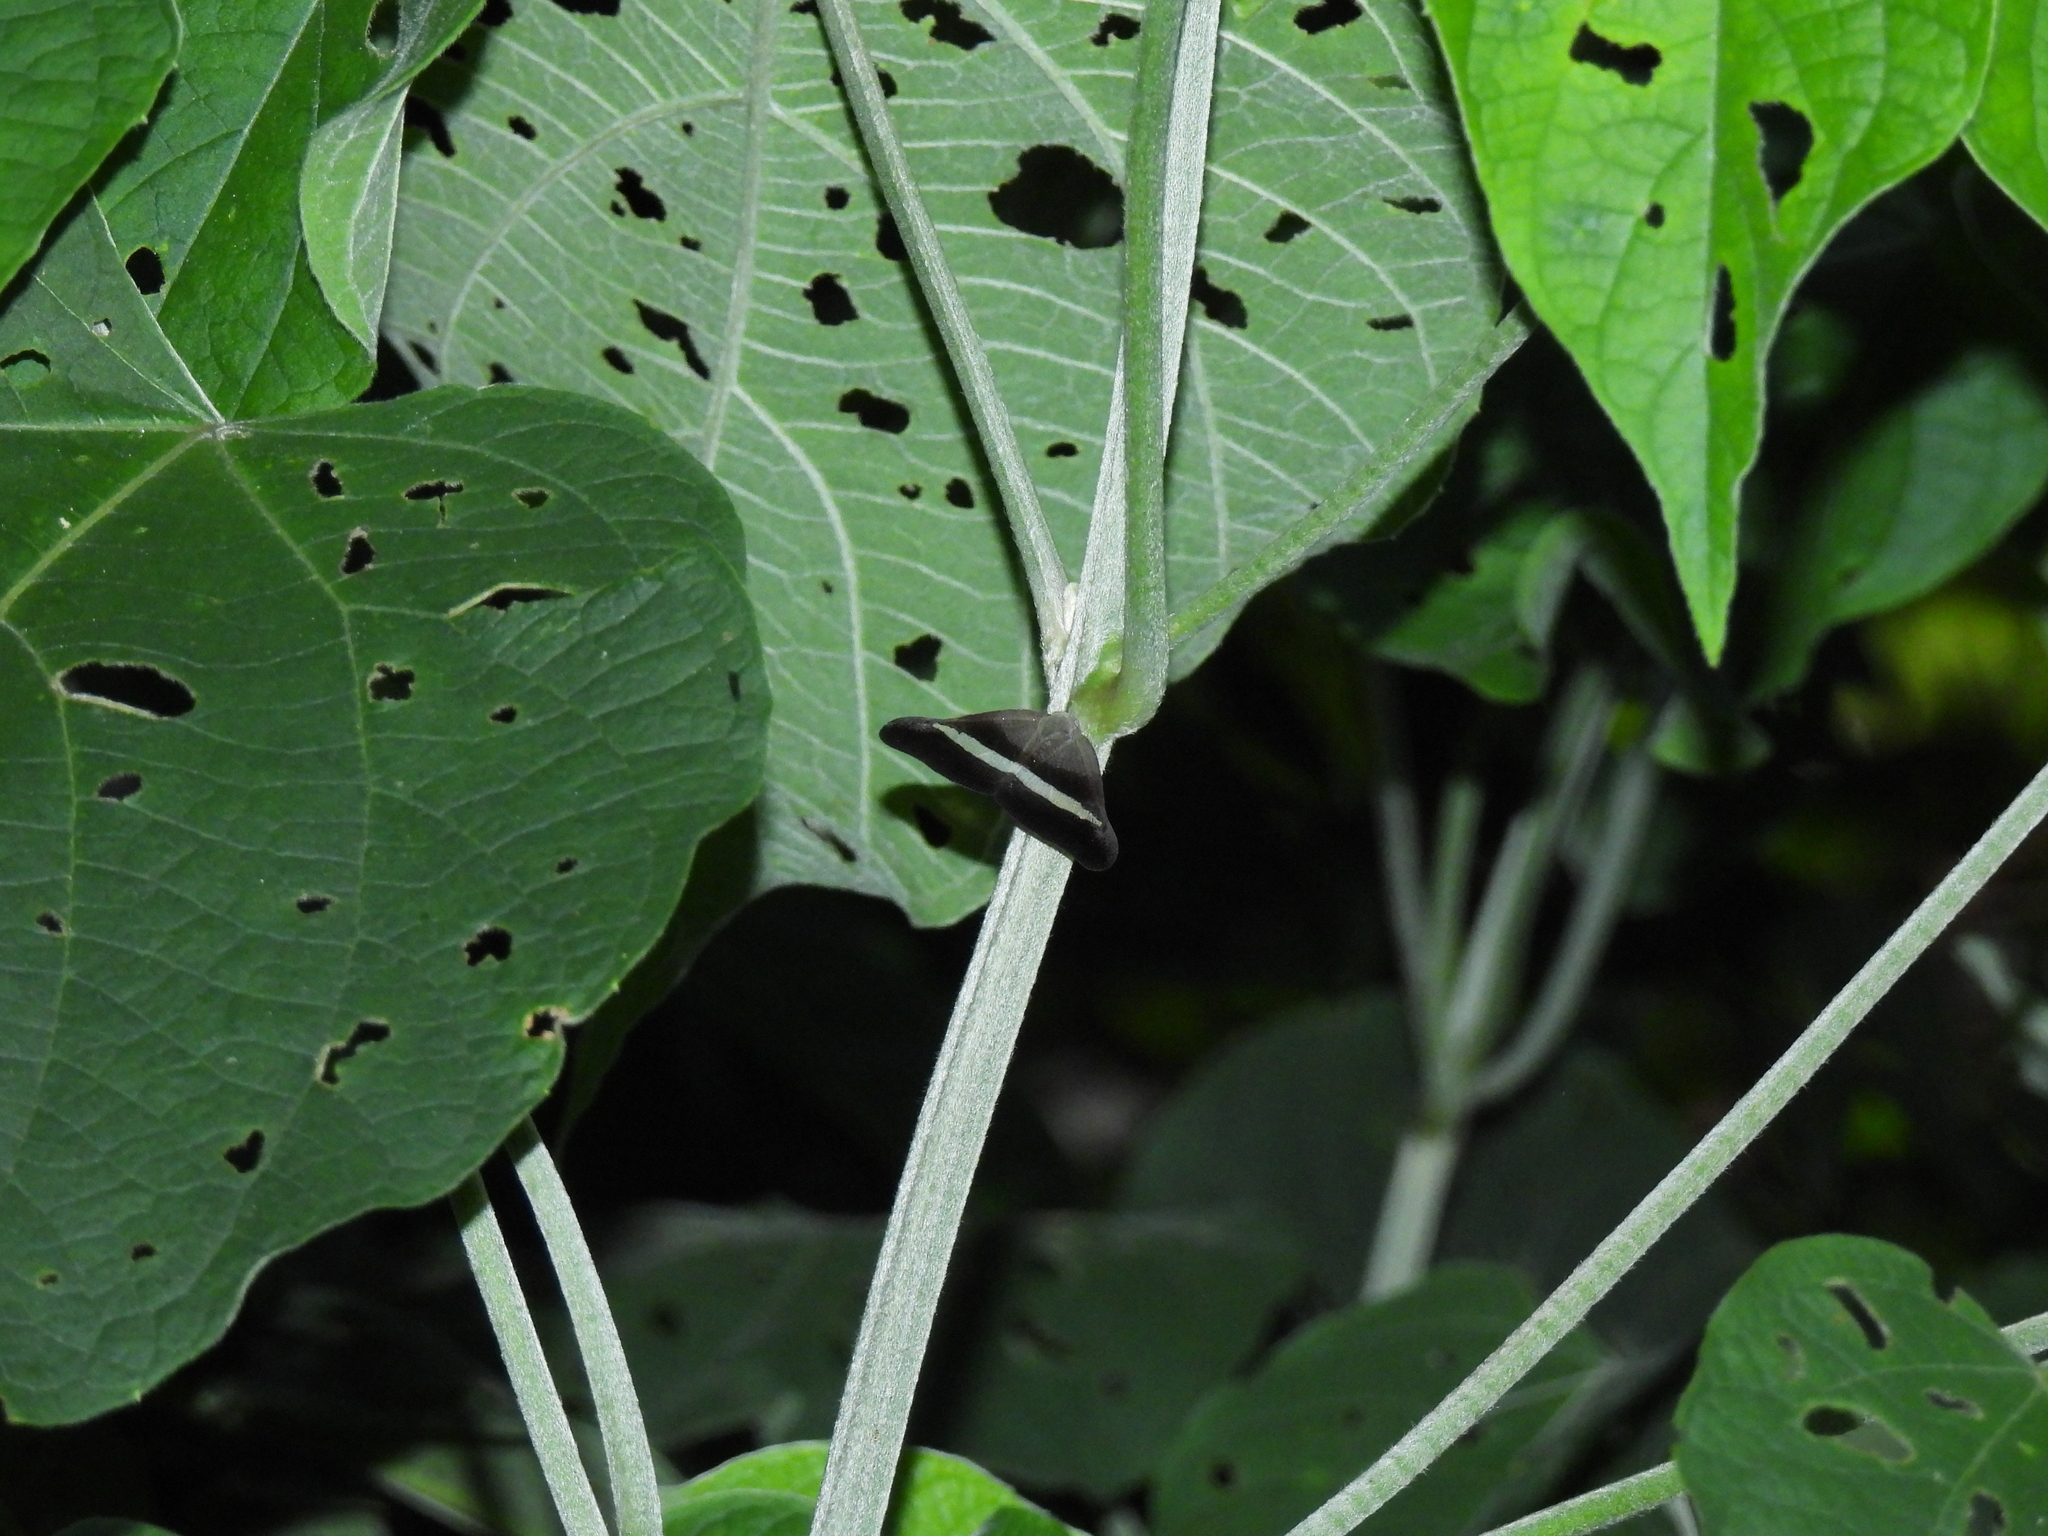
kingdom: Animalia
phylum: Arthropoda
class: Insecta
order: Hemiptera
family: Ricaniidae
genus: Pochazia
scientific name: Pochazia sinuata
